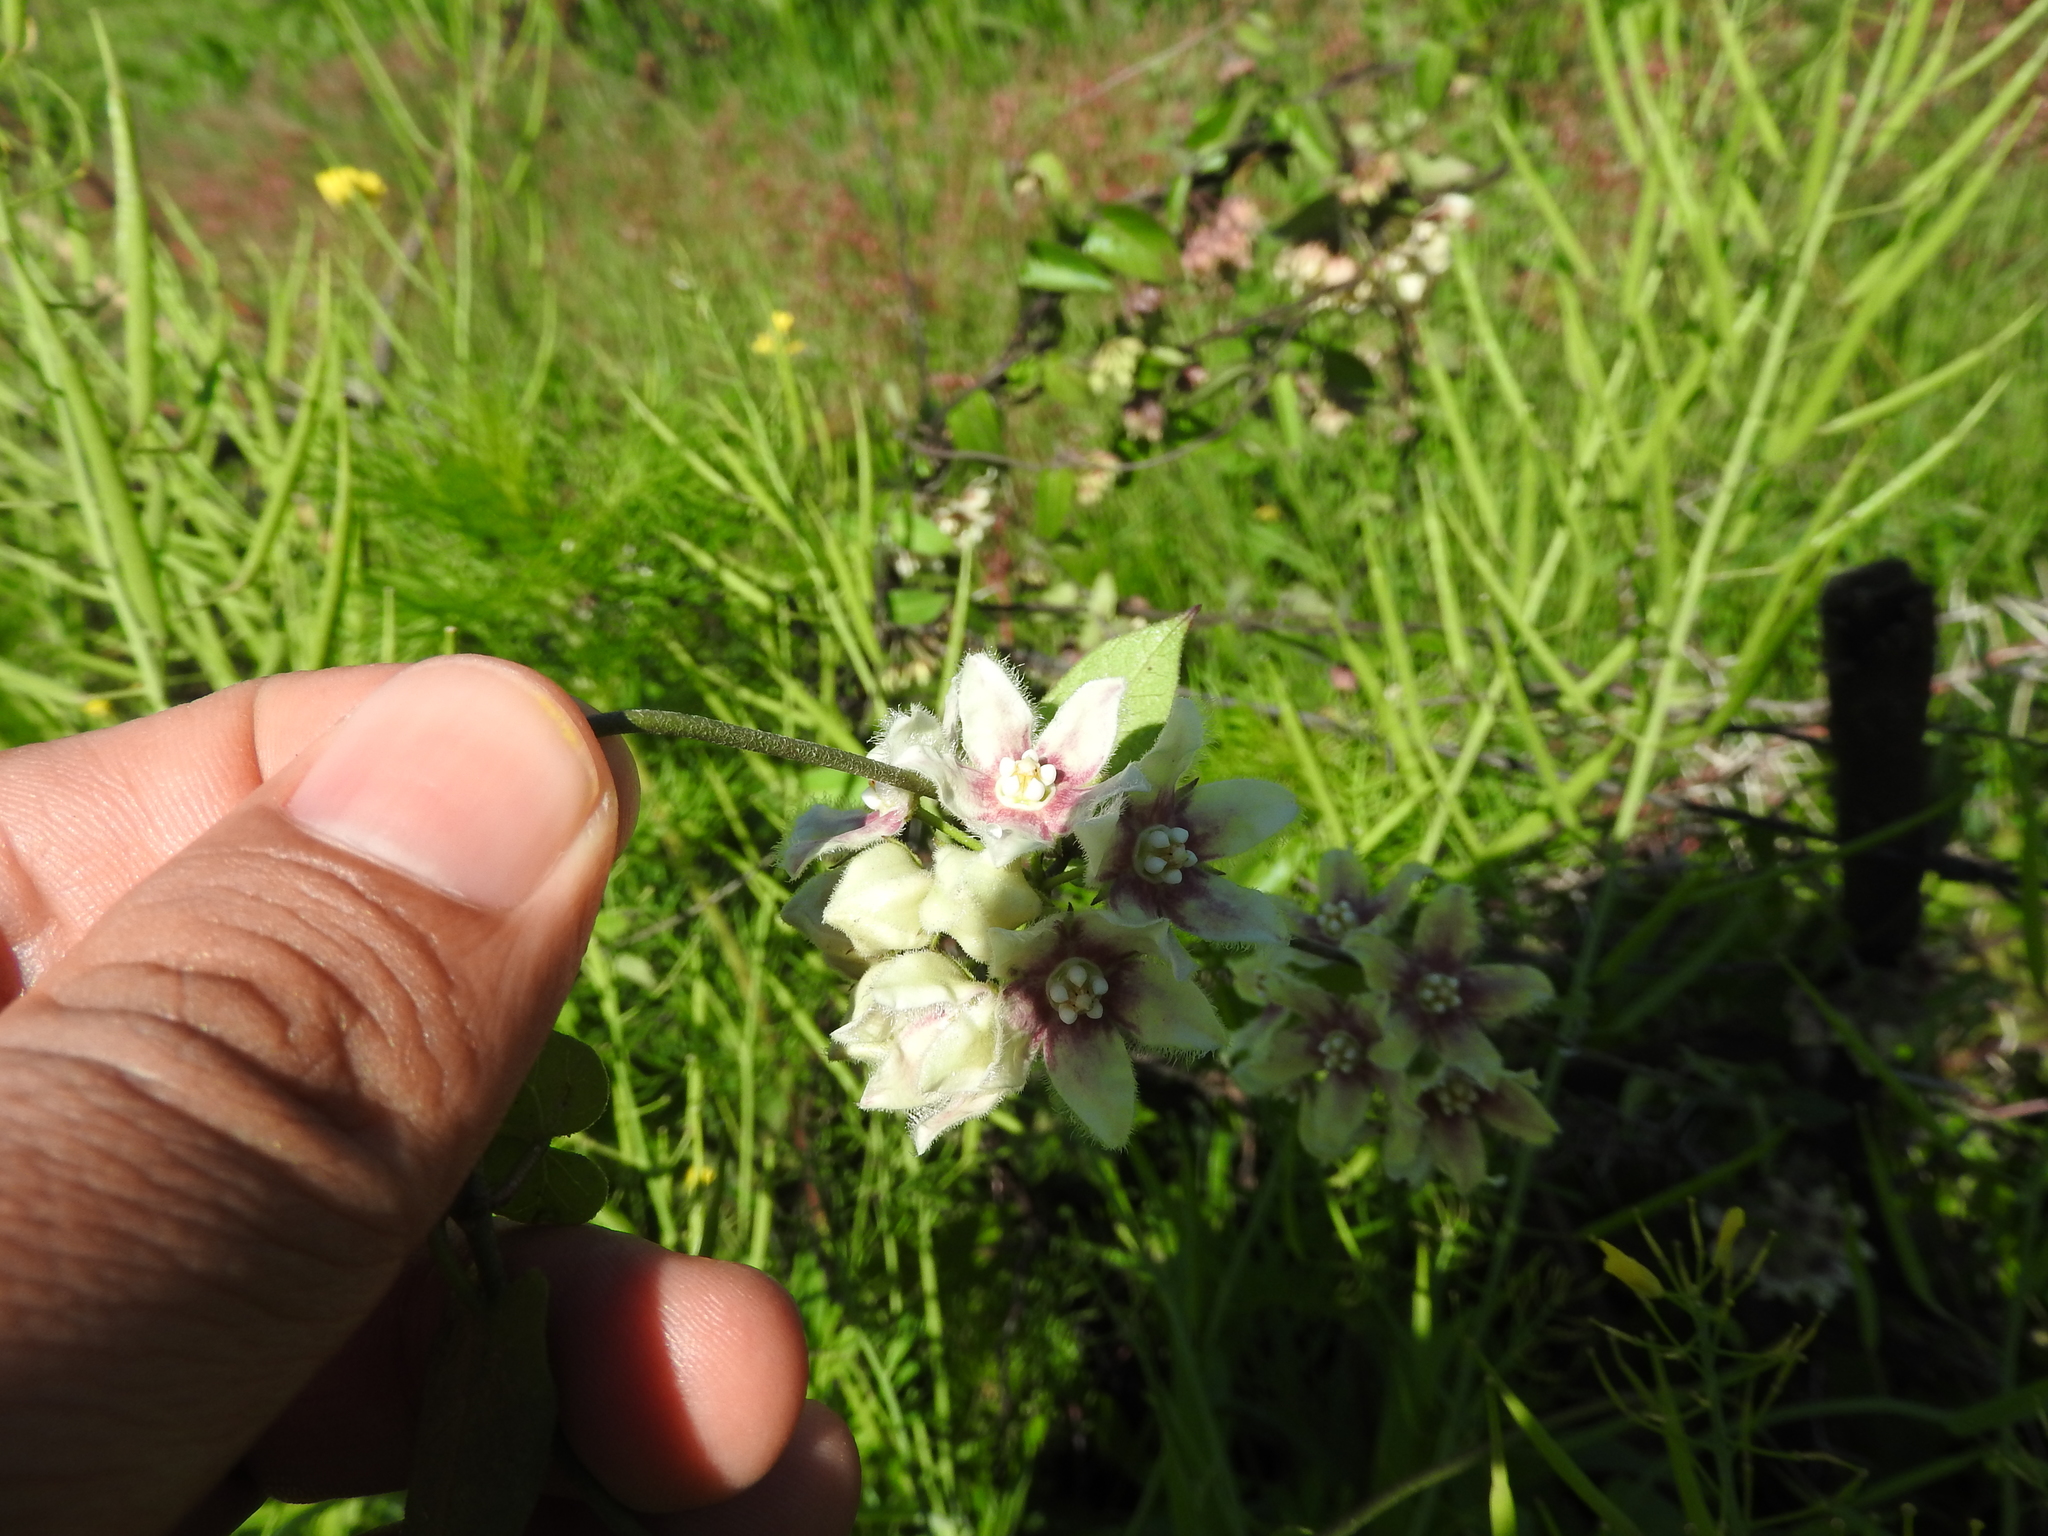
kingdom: Plantae
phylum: Tracheophyta
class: Magnoliopsida
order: Gentianales
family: Apocynaceae
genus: Funastrum
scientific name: Funastrum elegans
